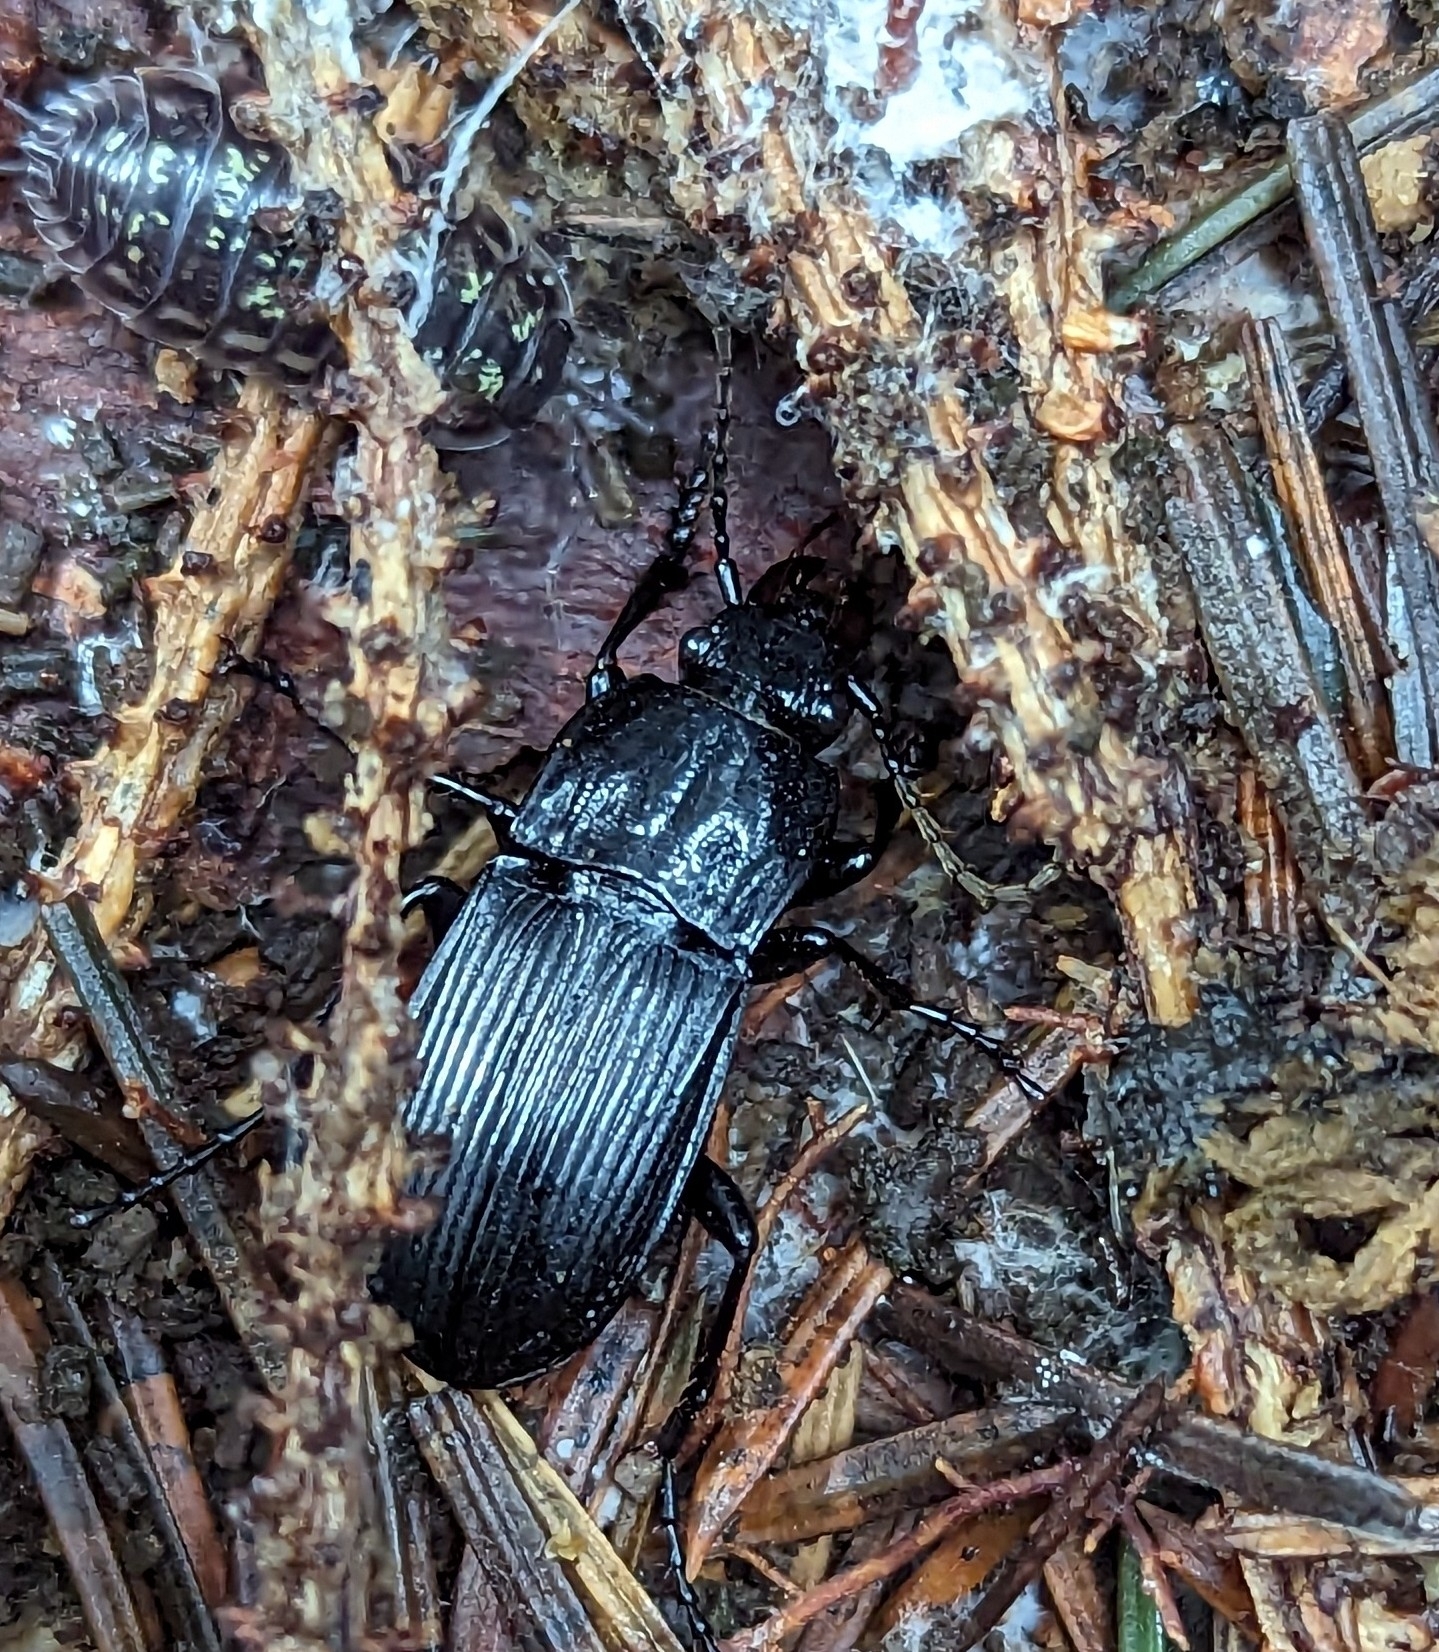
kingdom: Animalia
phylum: Arthropoda
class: Insecta
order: Coleoptera
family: Carabidae
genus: Abax
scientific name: Abax parallelepipedus
